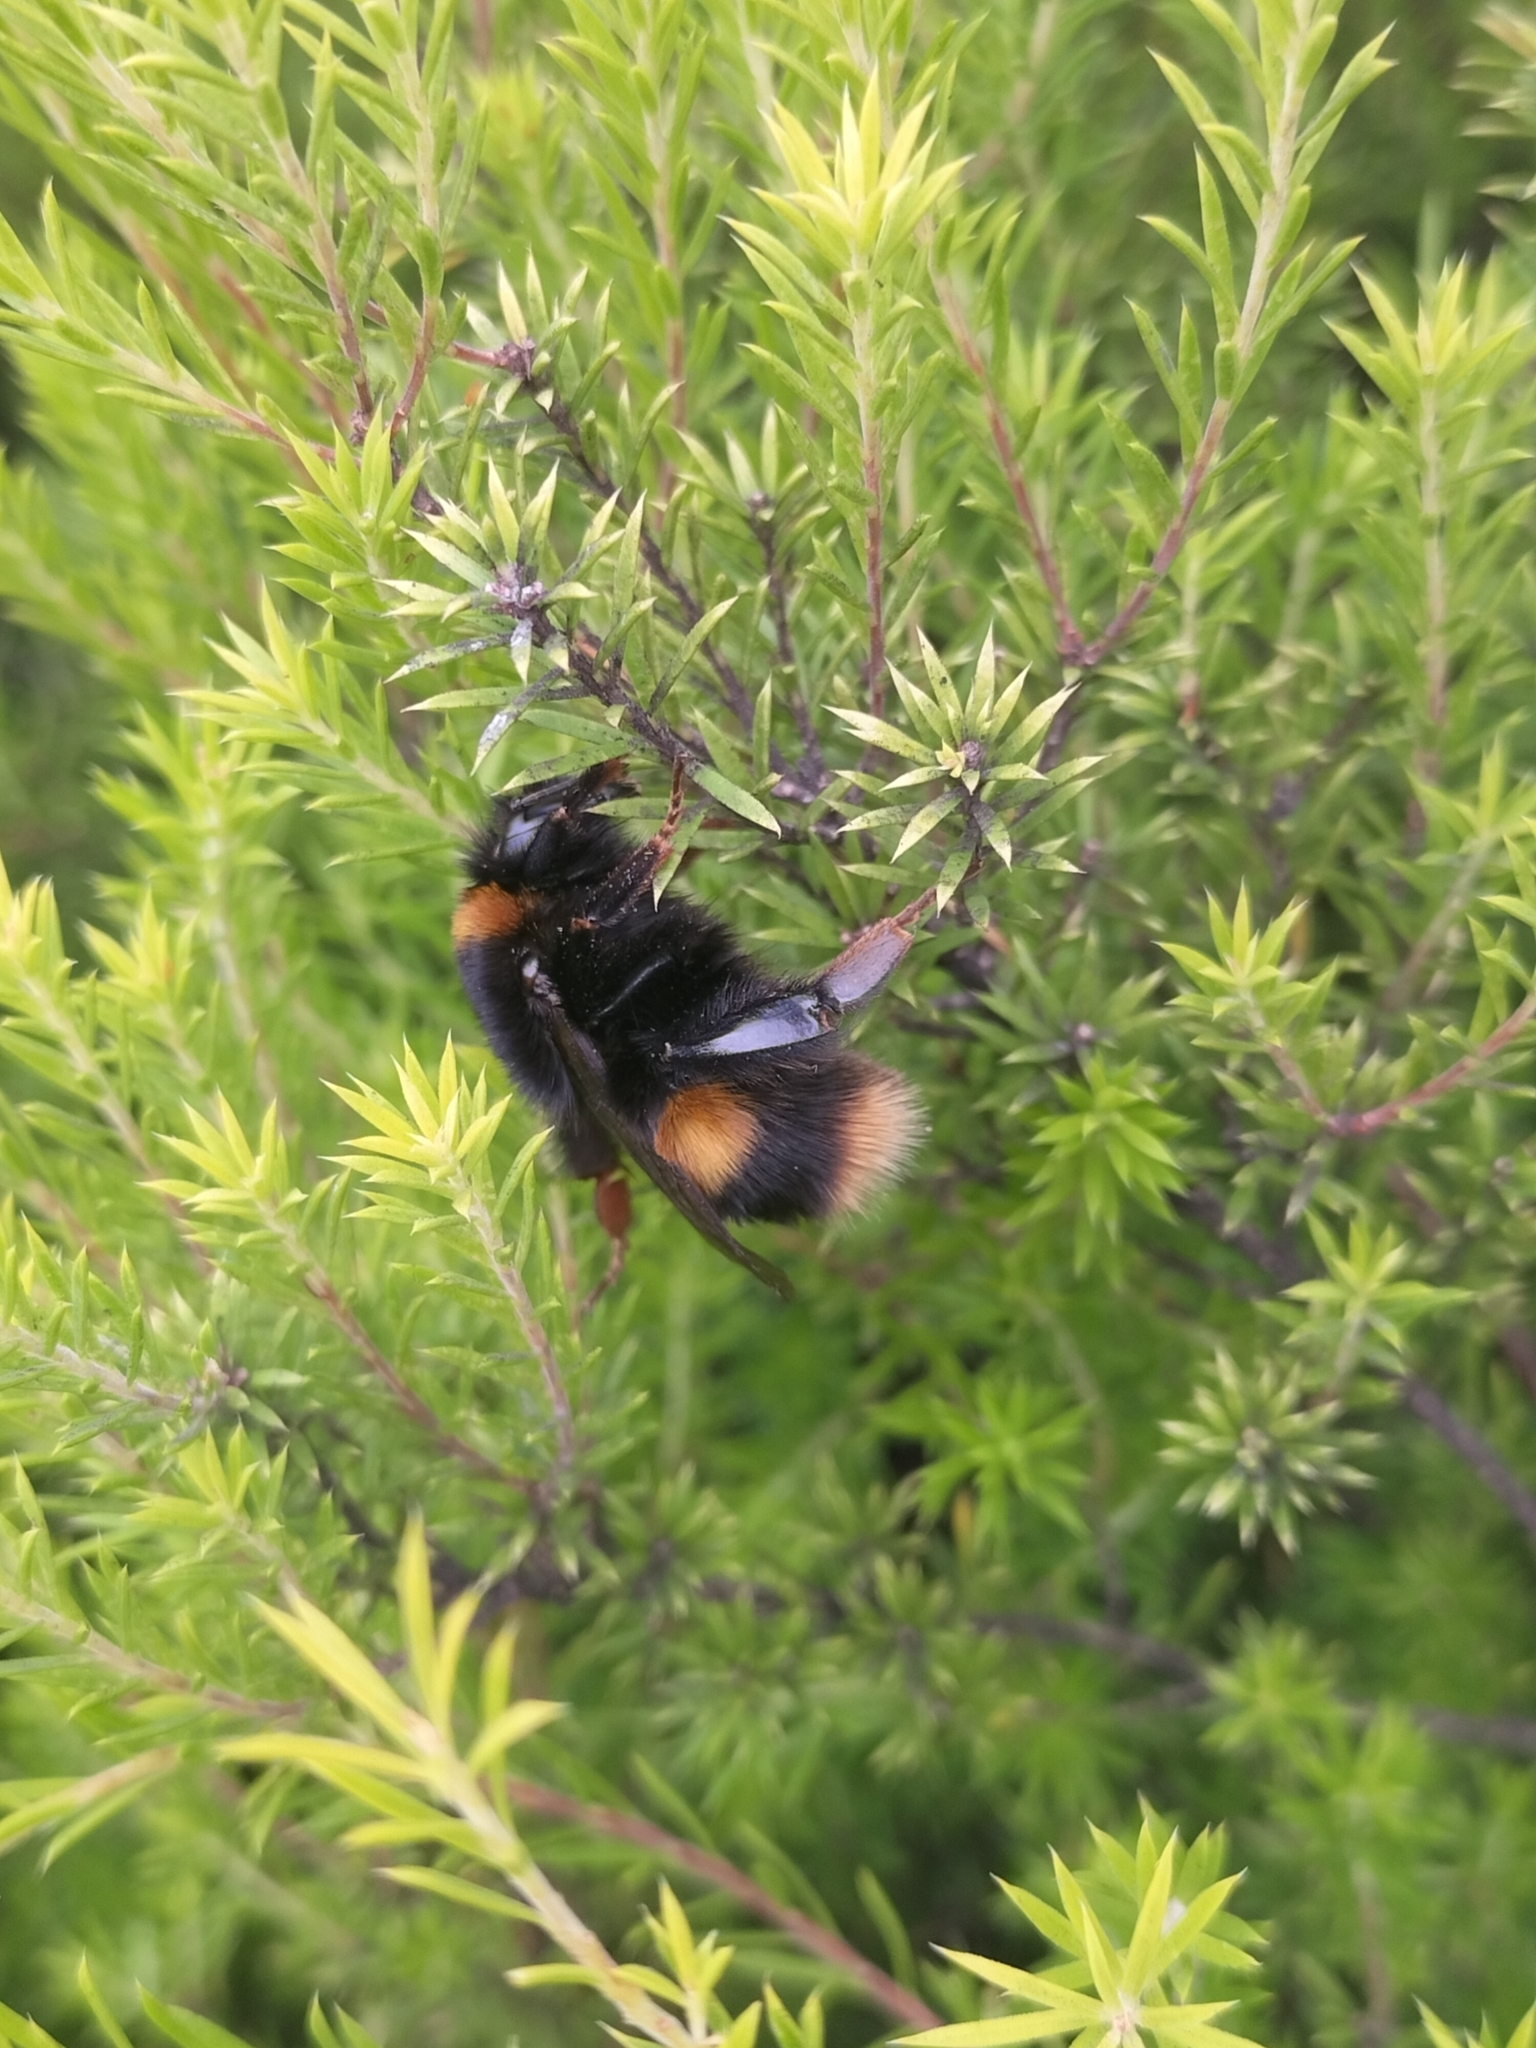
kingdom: Animalia
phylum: Arthropoda
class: Insecta
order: Hymenoptera
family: Apidae
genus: Bombus
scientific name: Bombus terrestris
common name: Buff-tailed bumblebee
